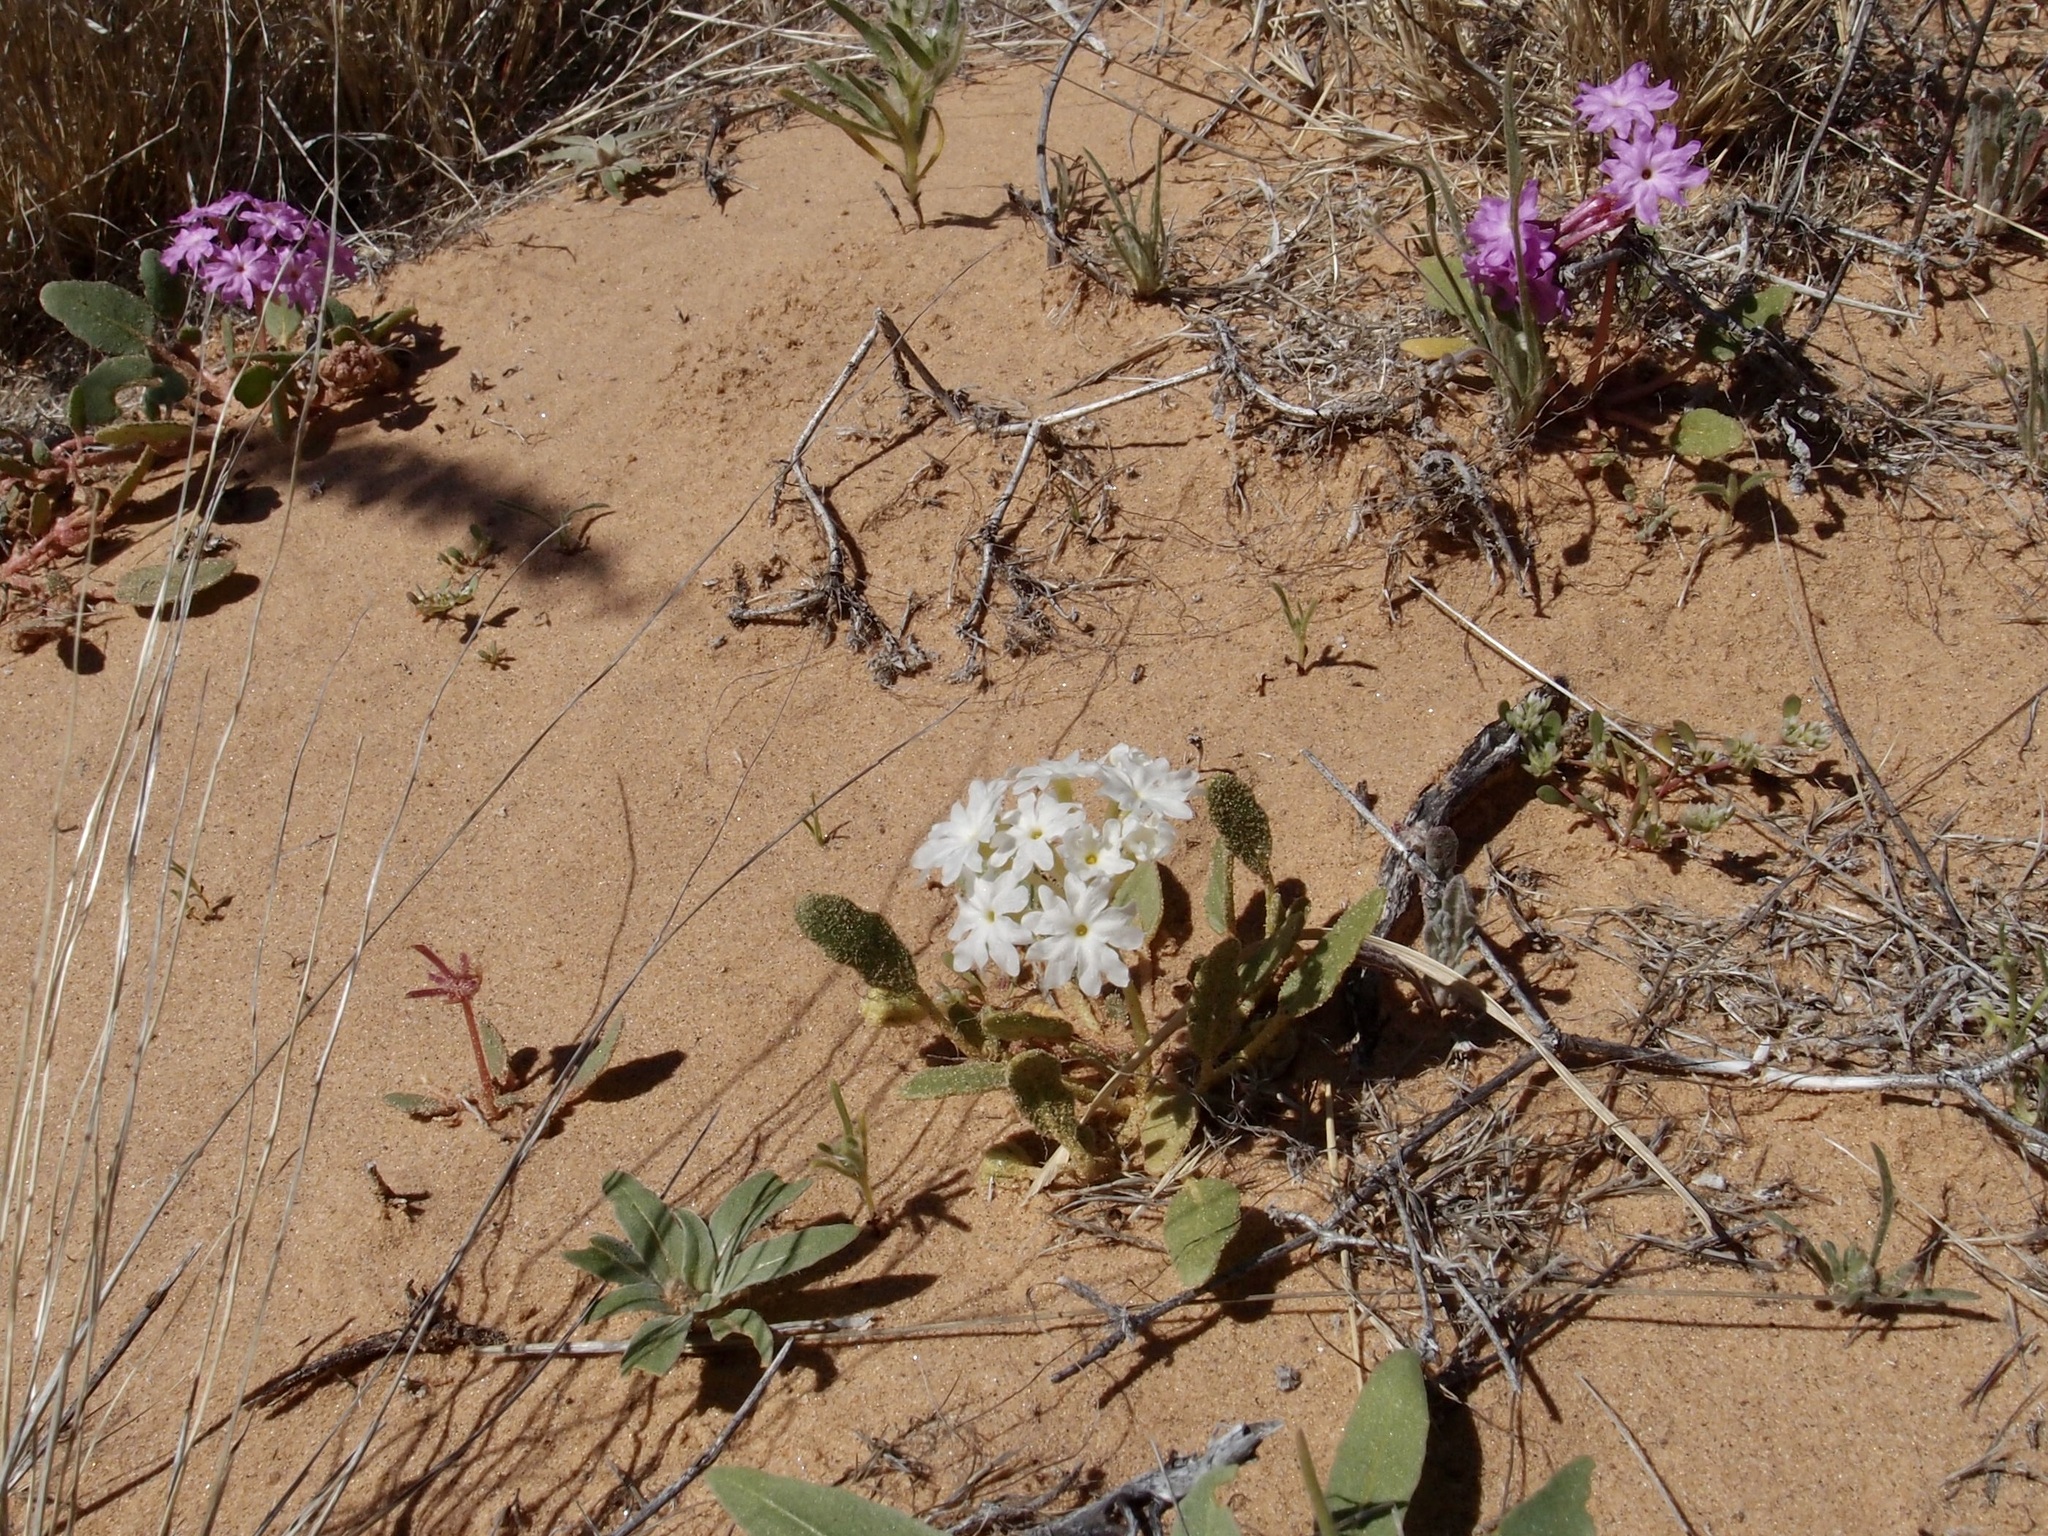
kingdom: Plantae
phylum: Tracheophyta
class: Magnoliopsida
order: Caryophyllales
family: Nyctaginaceae
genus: Abronia
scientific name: Abronia villosa
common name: Desert sand-verbena
